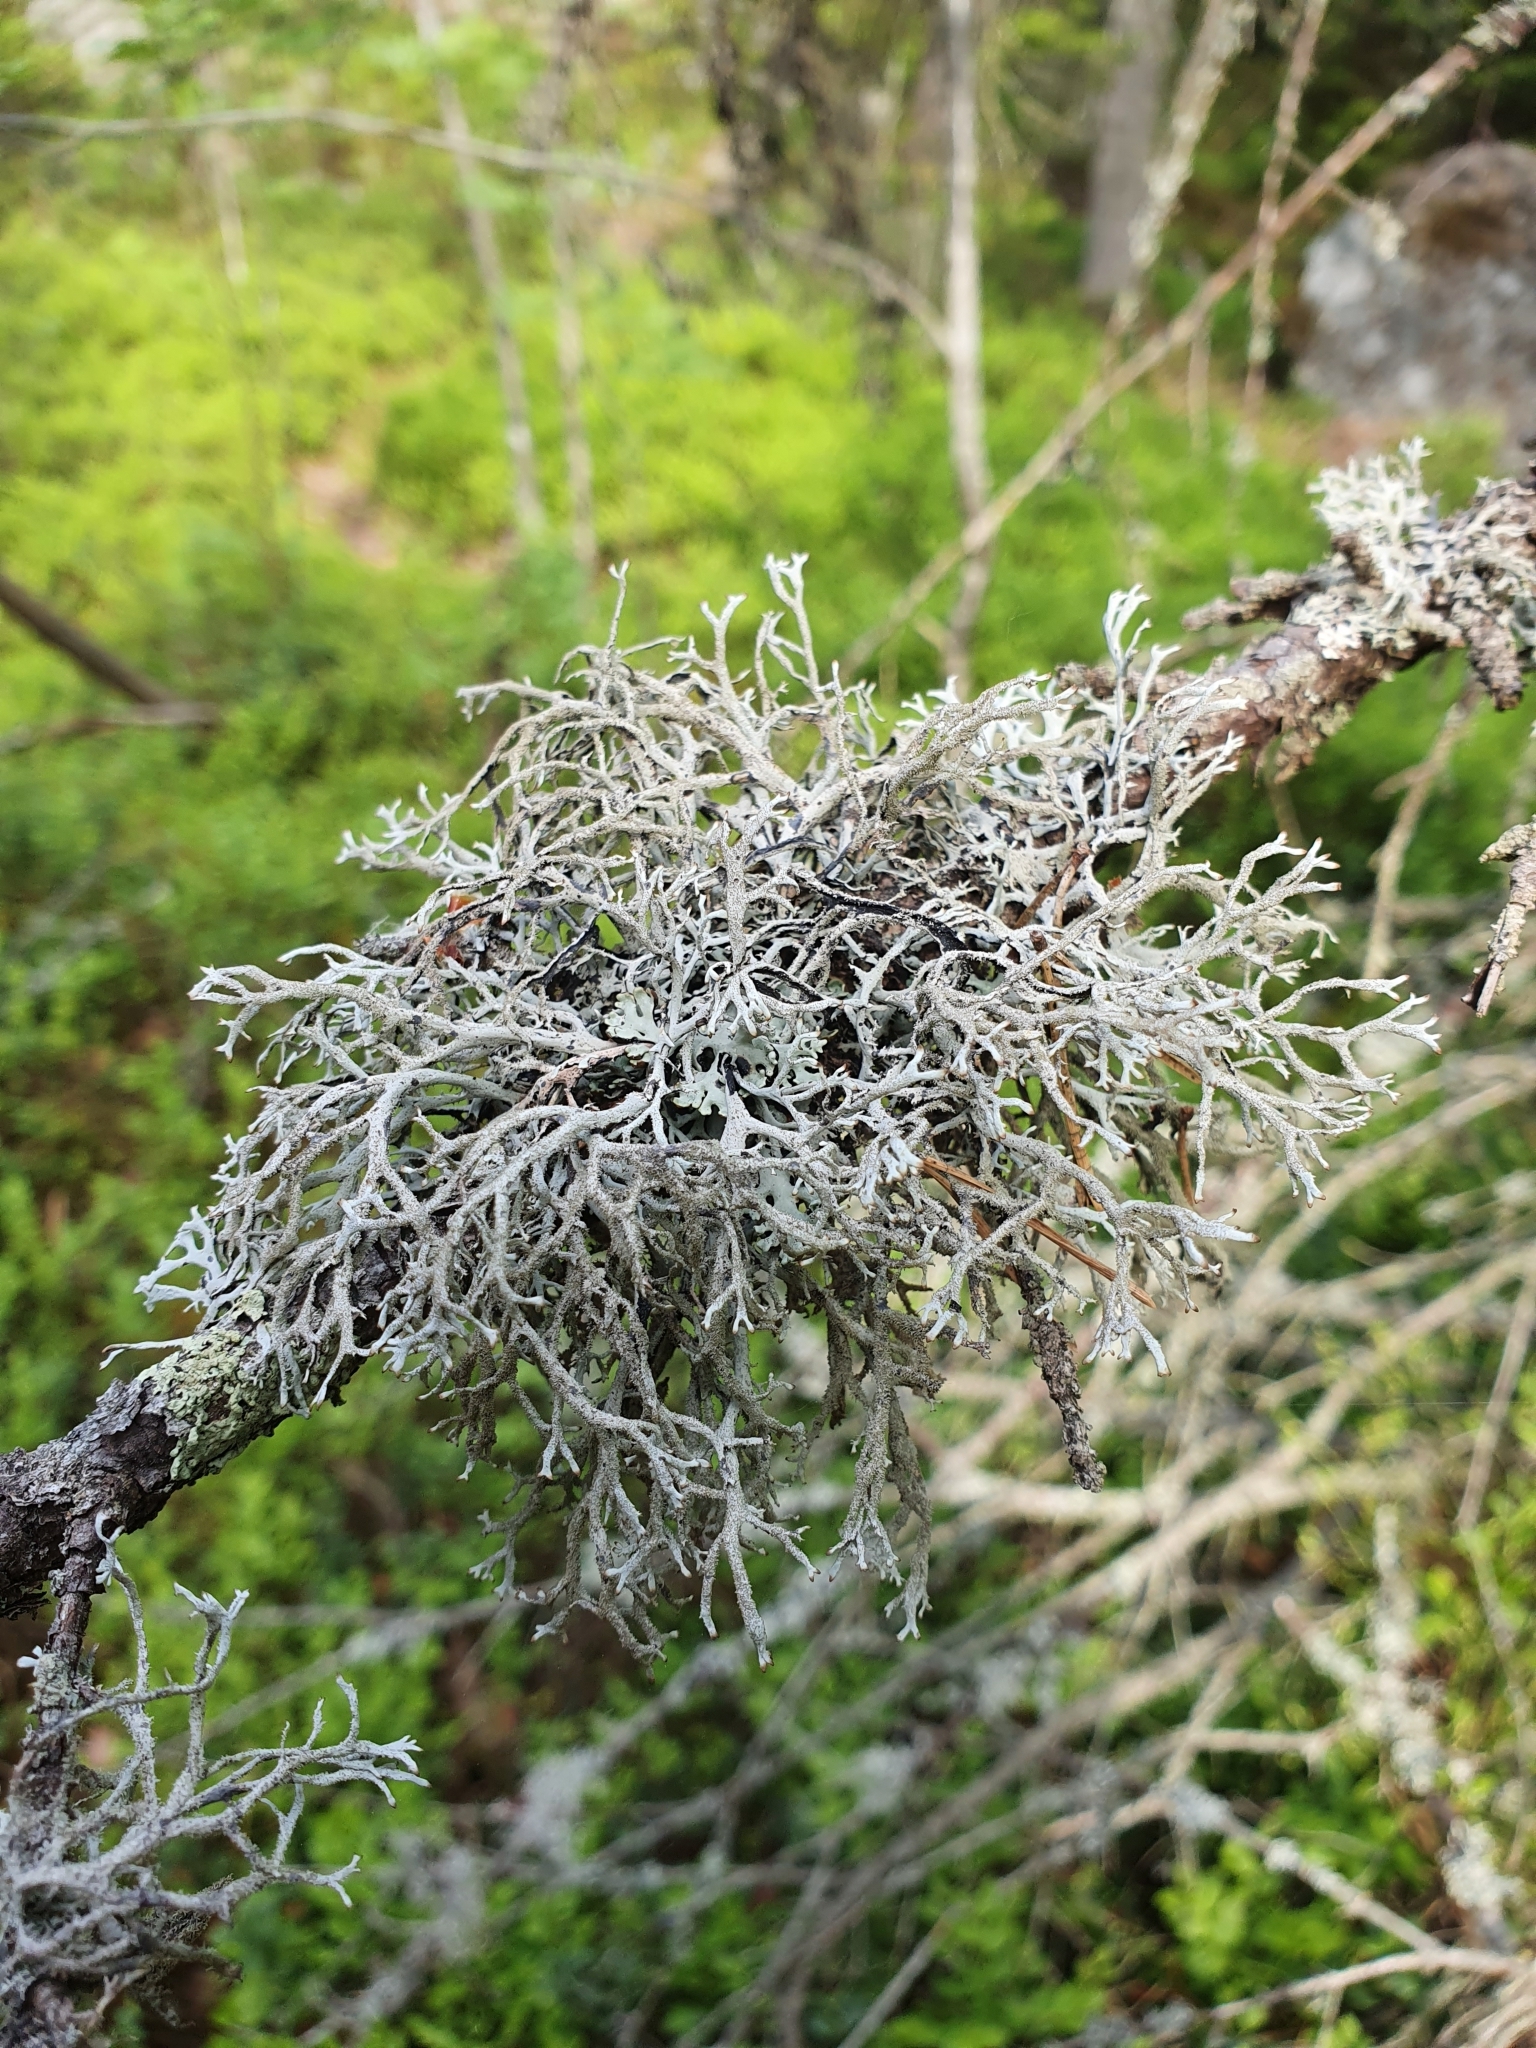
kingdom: Fungi
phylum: Ascomycota
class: Lecanoromycetes
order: Lecanorales
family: Parmeliaceae
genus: Pseudevernia
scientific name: Pseudevernia furfuracea
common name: Tree moss
